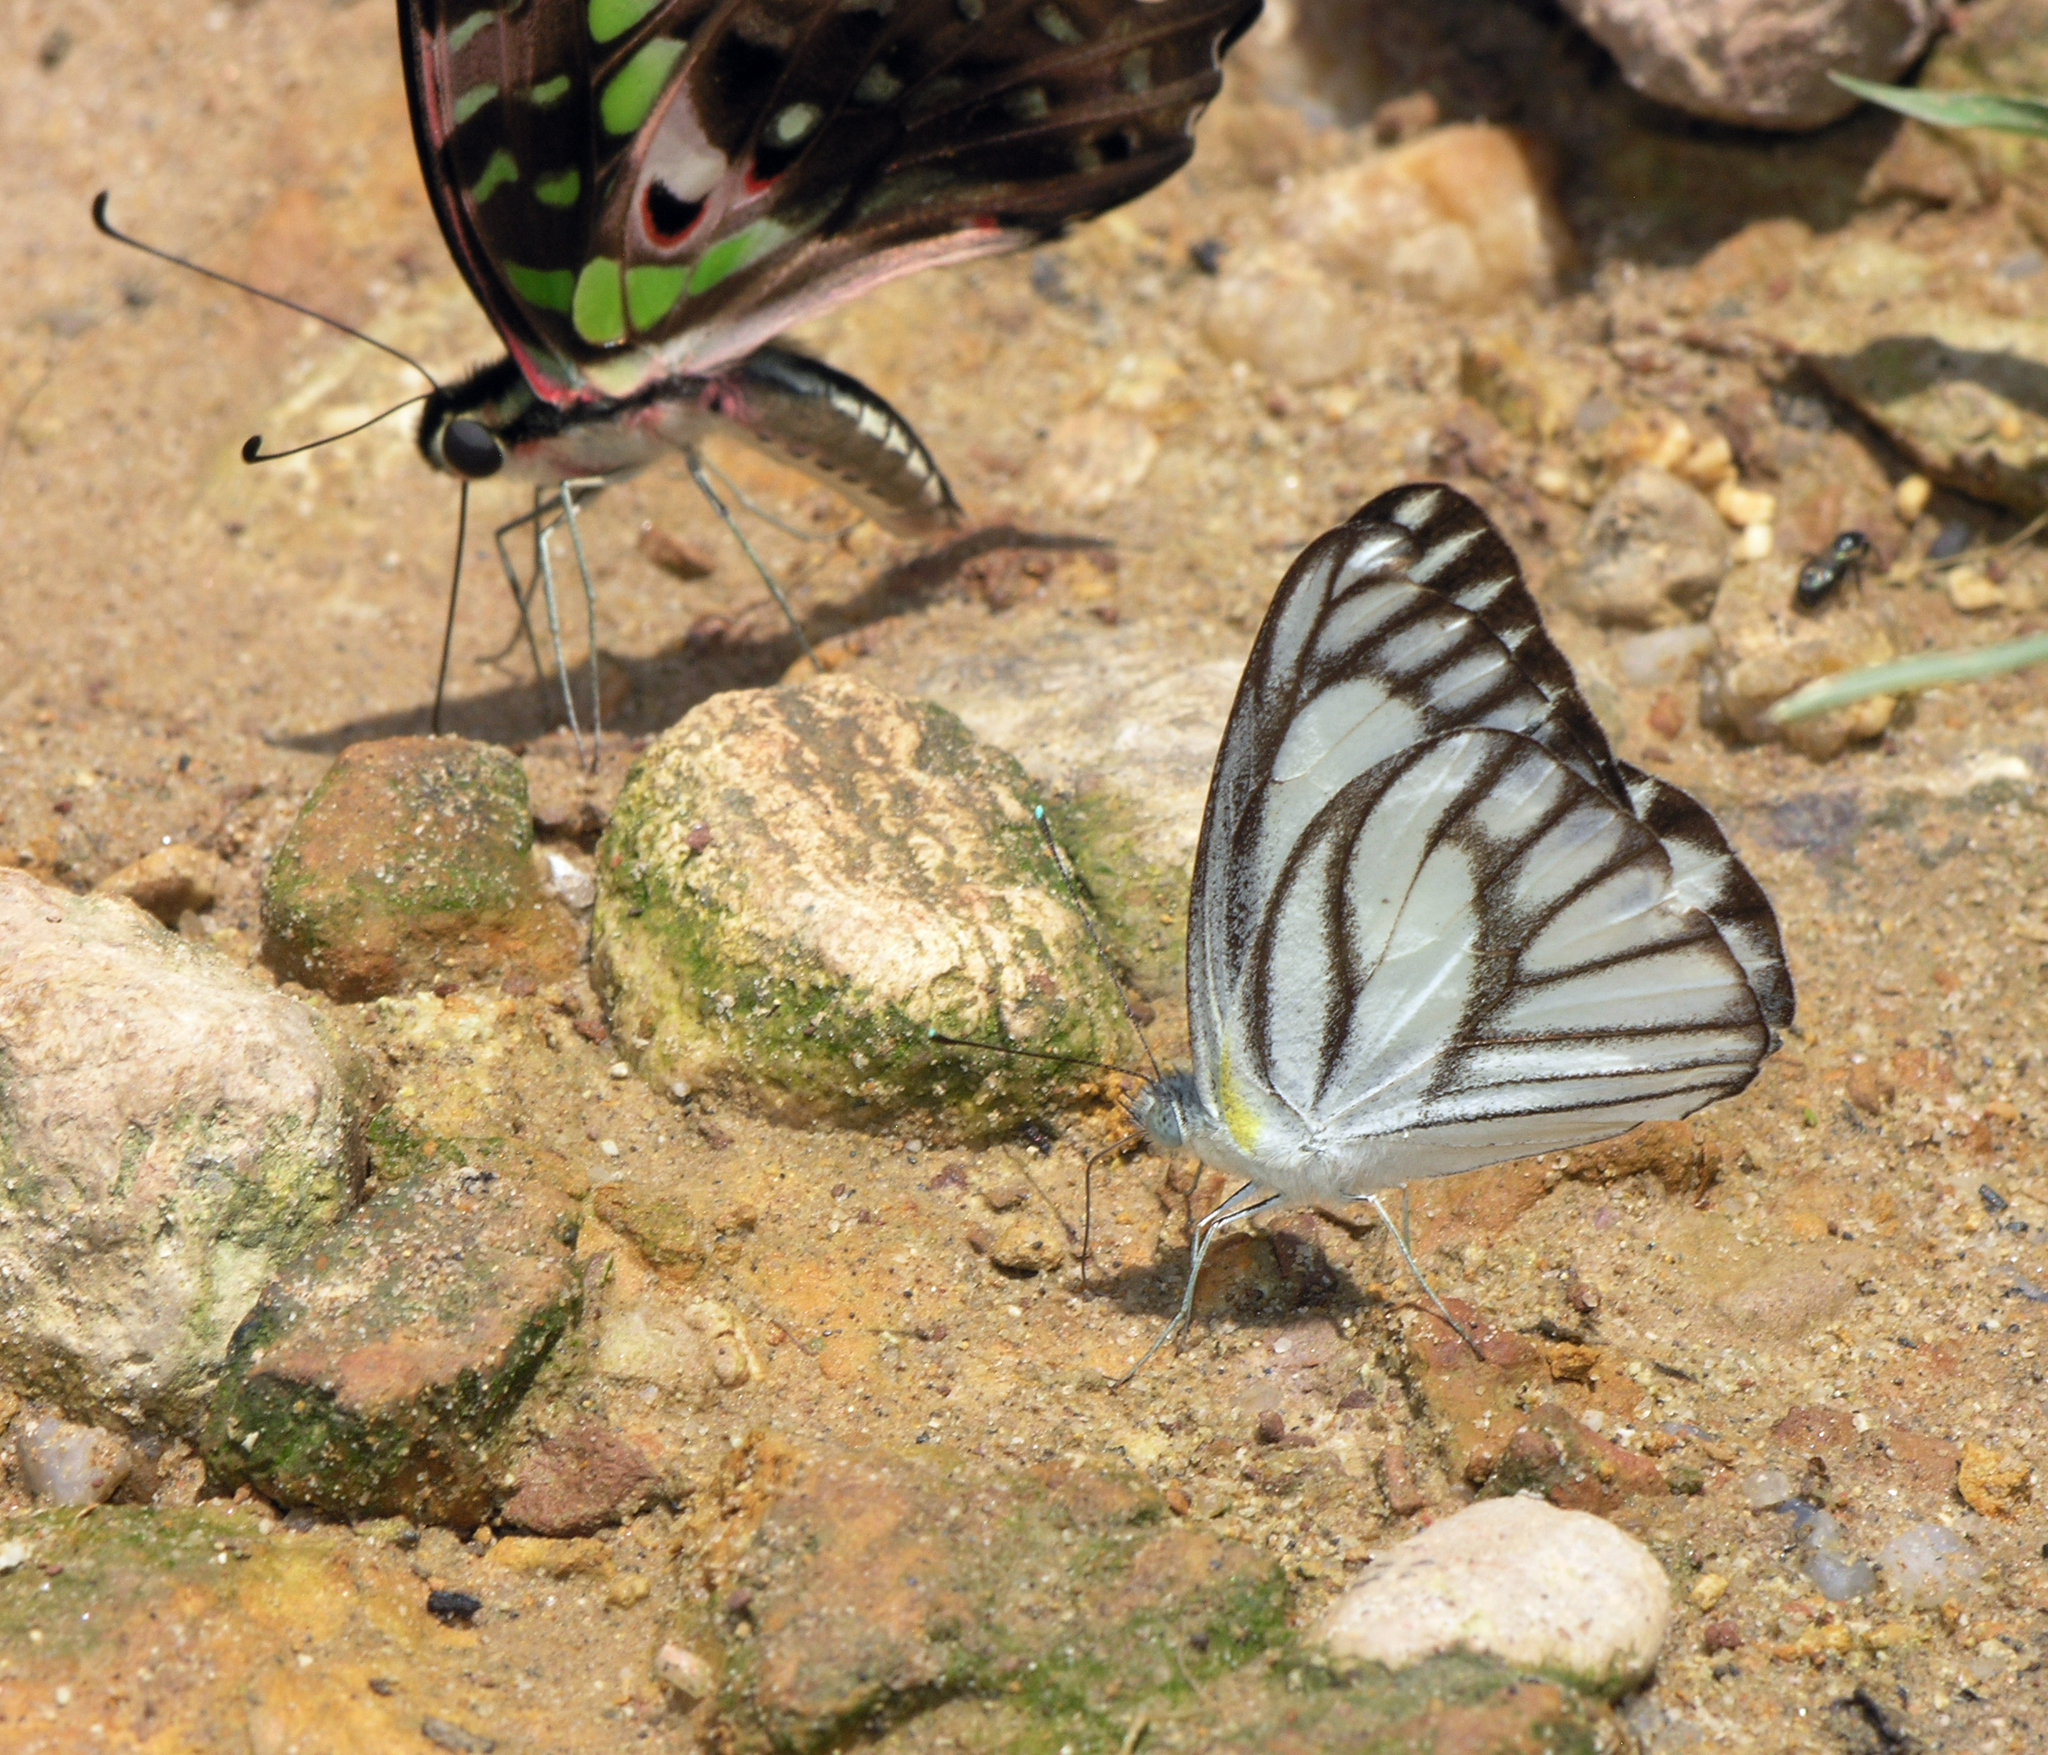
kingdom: Animalia
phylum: Arthropoda
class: Insecta
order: Lepidoptera
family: Pieridae
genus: Appias
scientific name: Appias libythea
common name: Striped albatross
